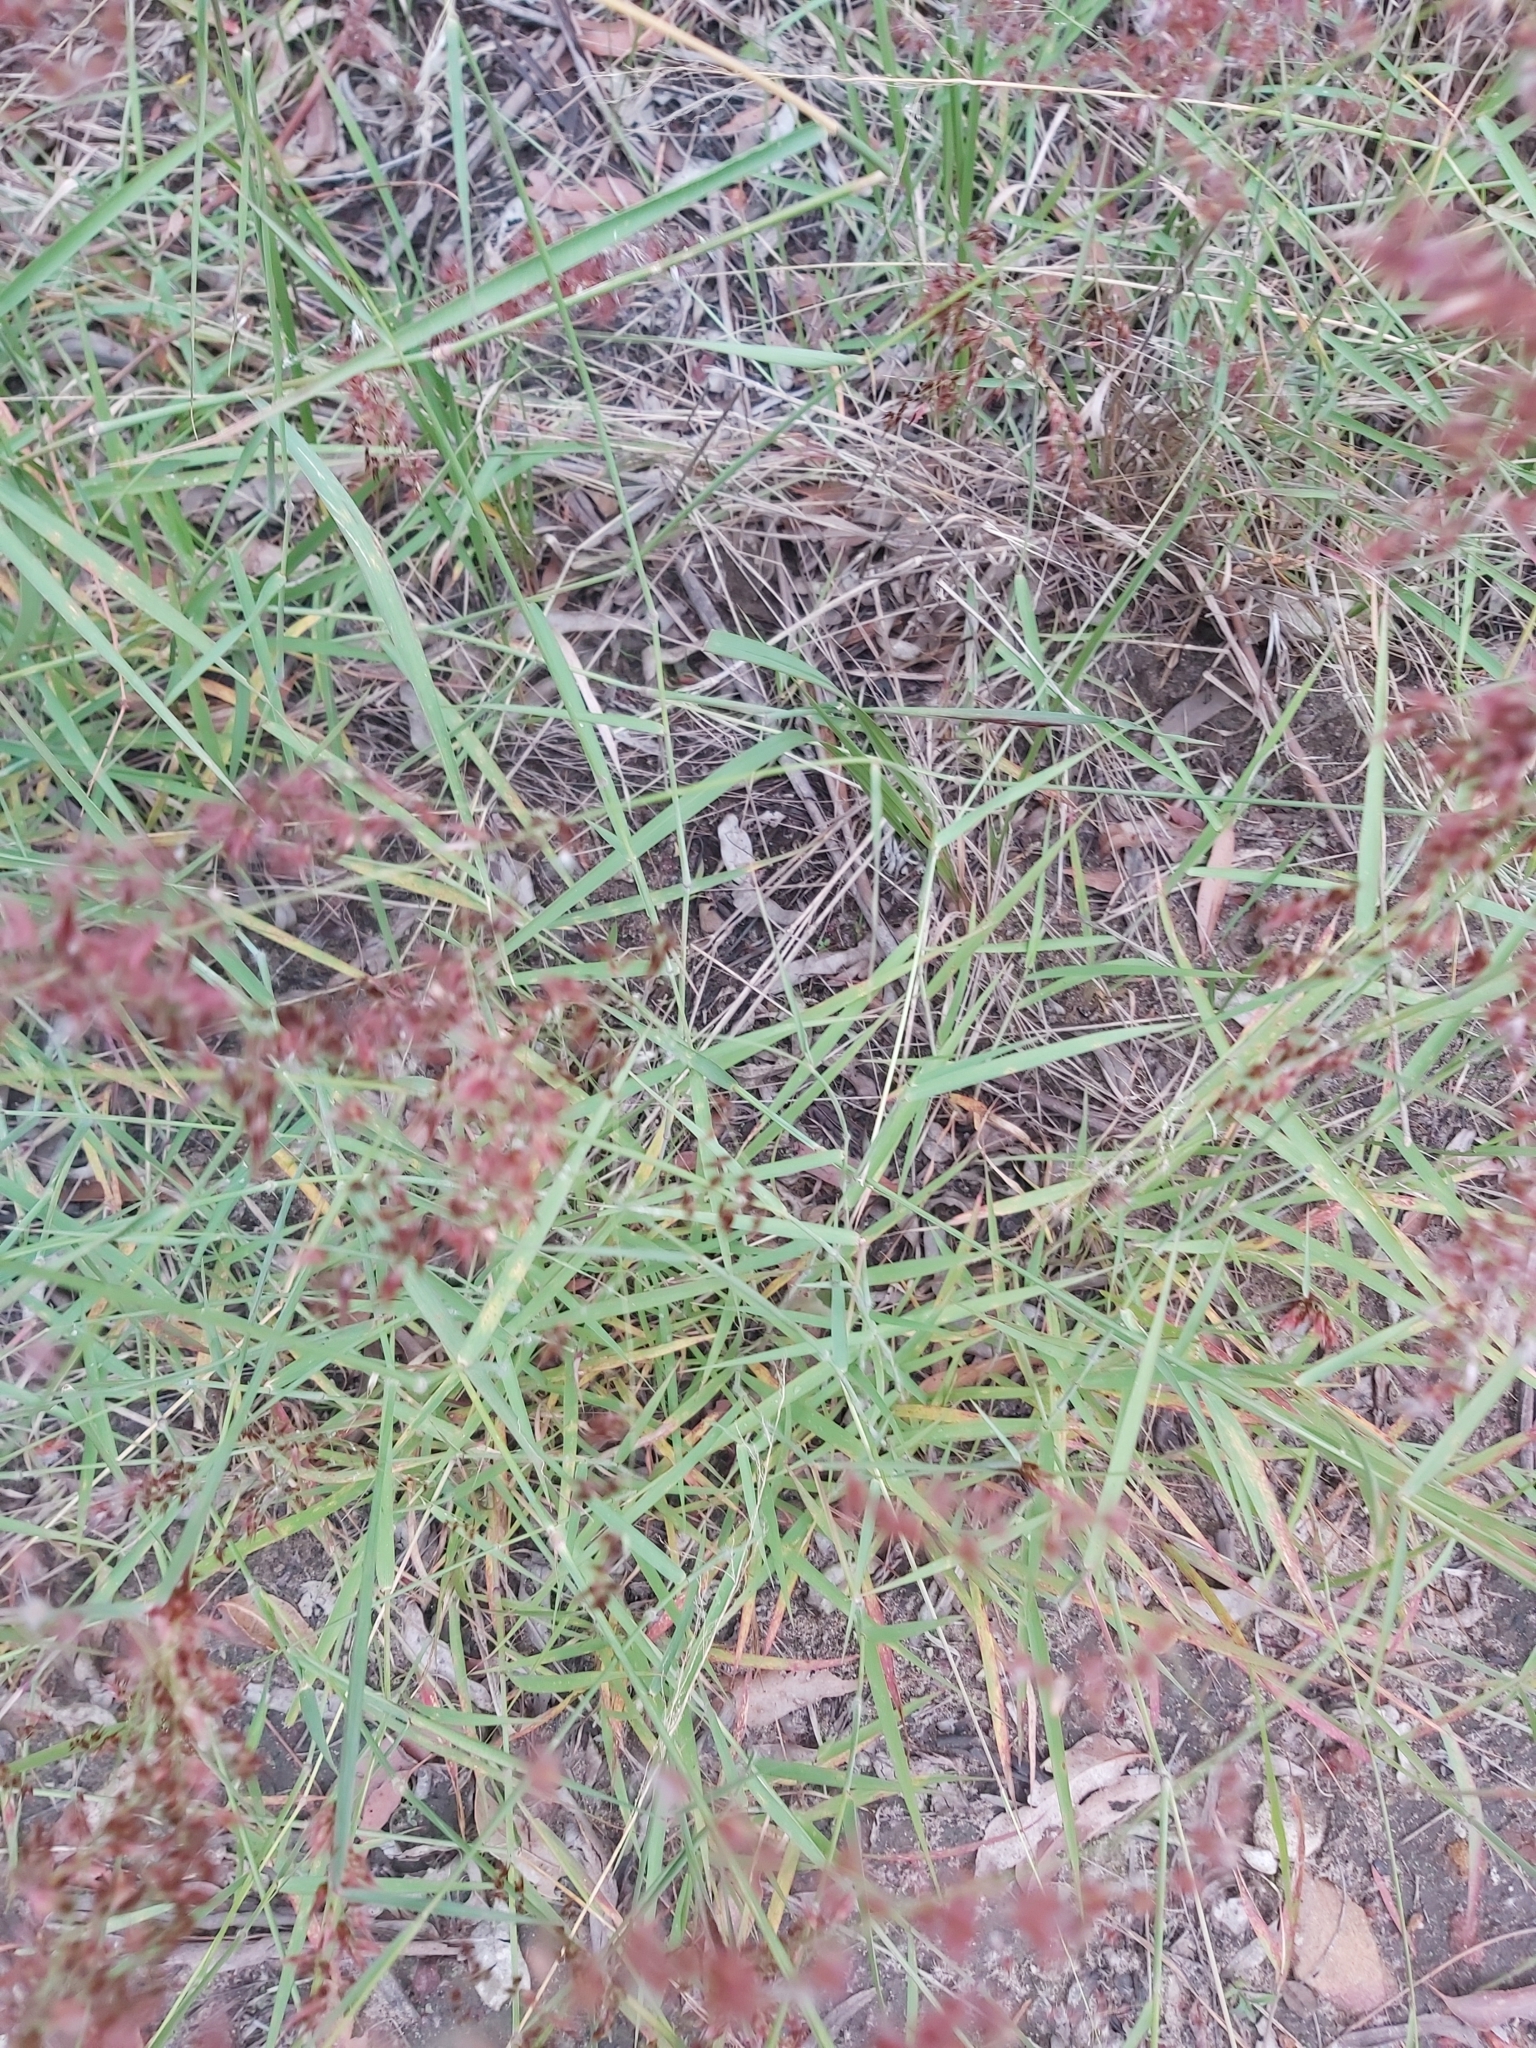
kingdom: Plantae
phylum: Tracheophyta
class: Liliopsida
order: Poales
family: Poaceae
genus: Melinis
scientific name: Melinis repens
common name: Rose natal grass
